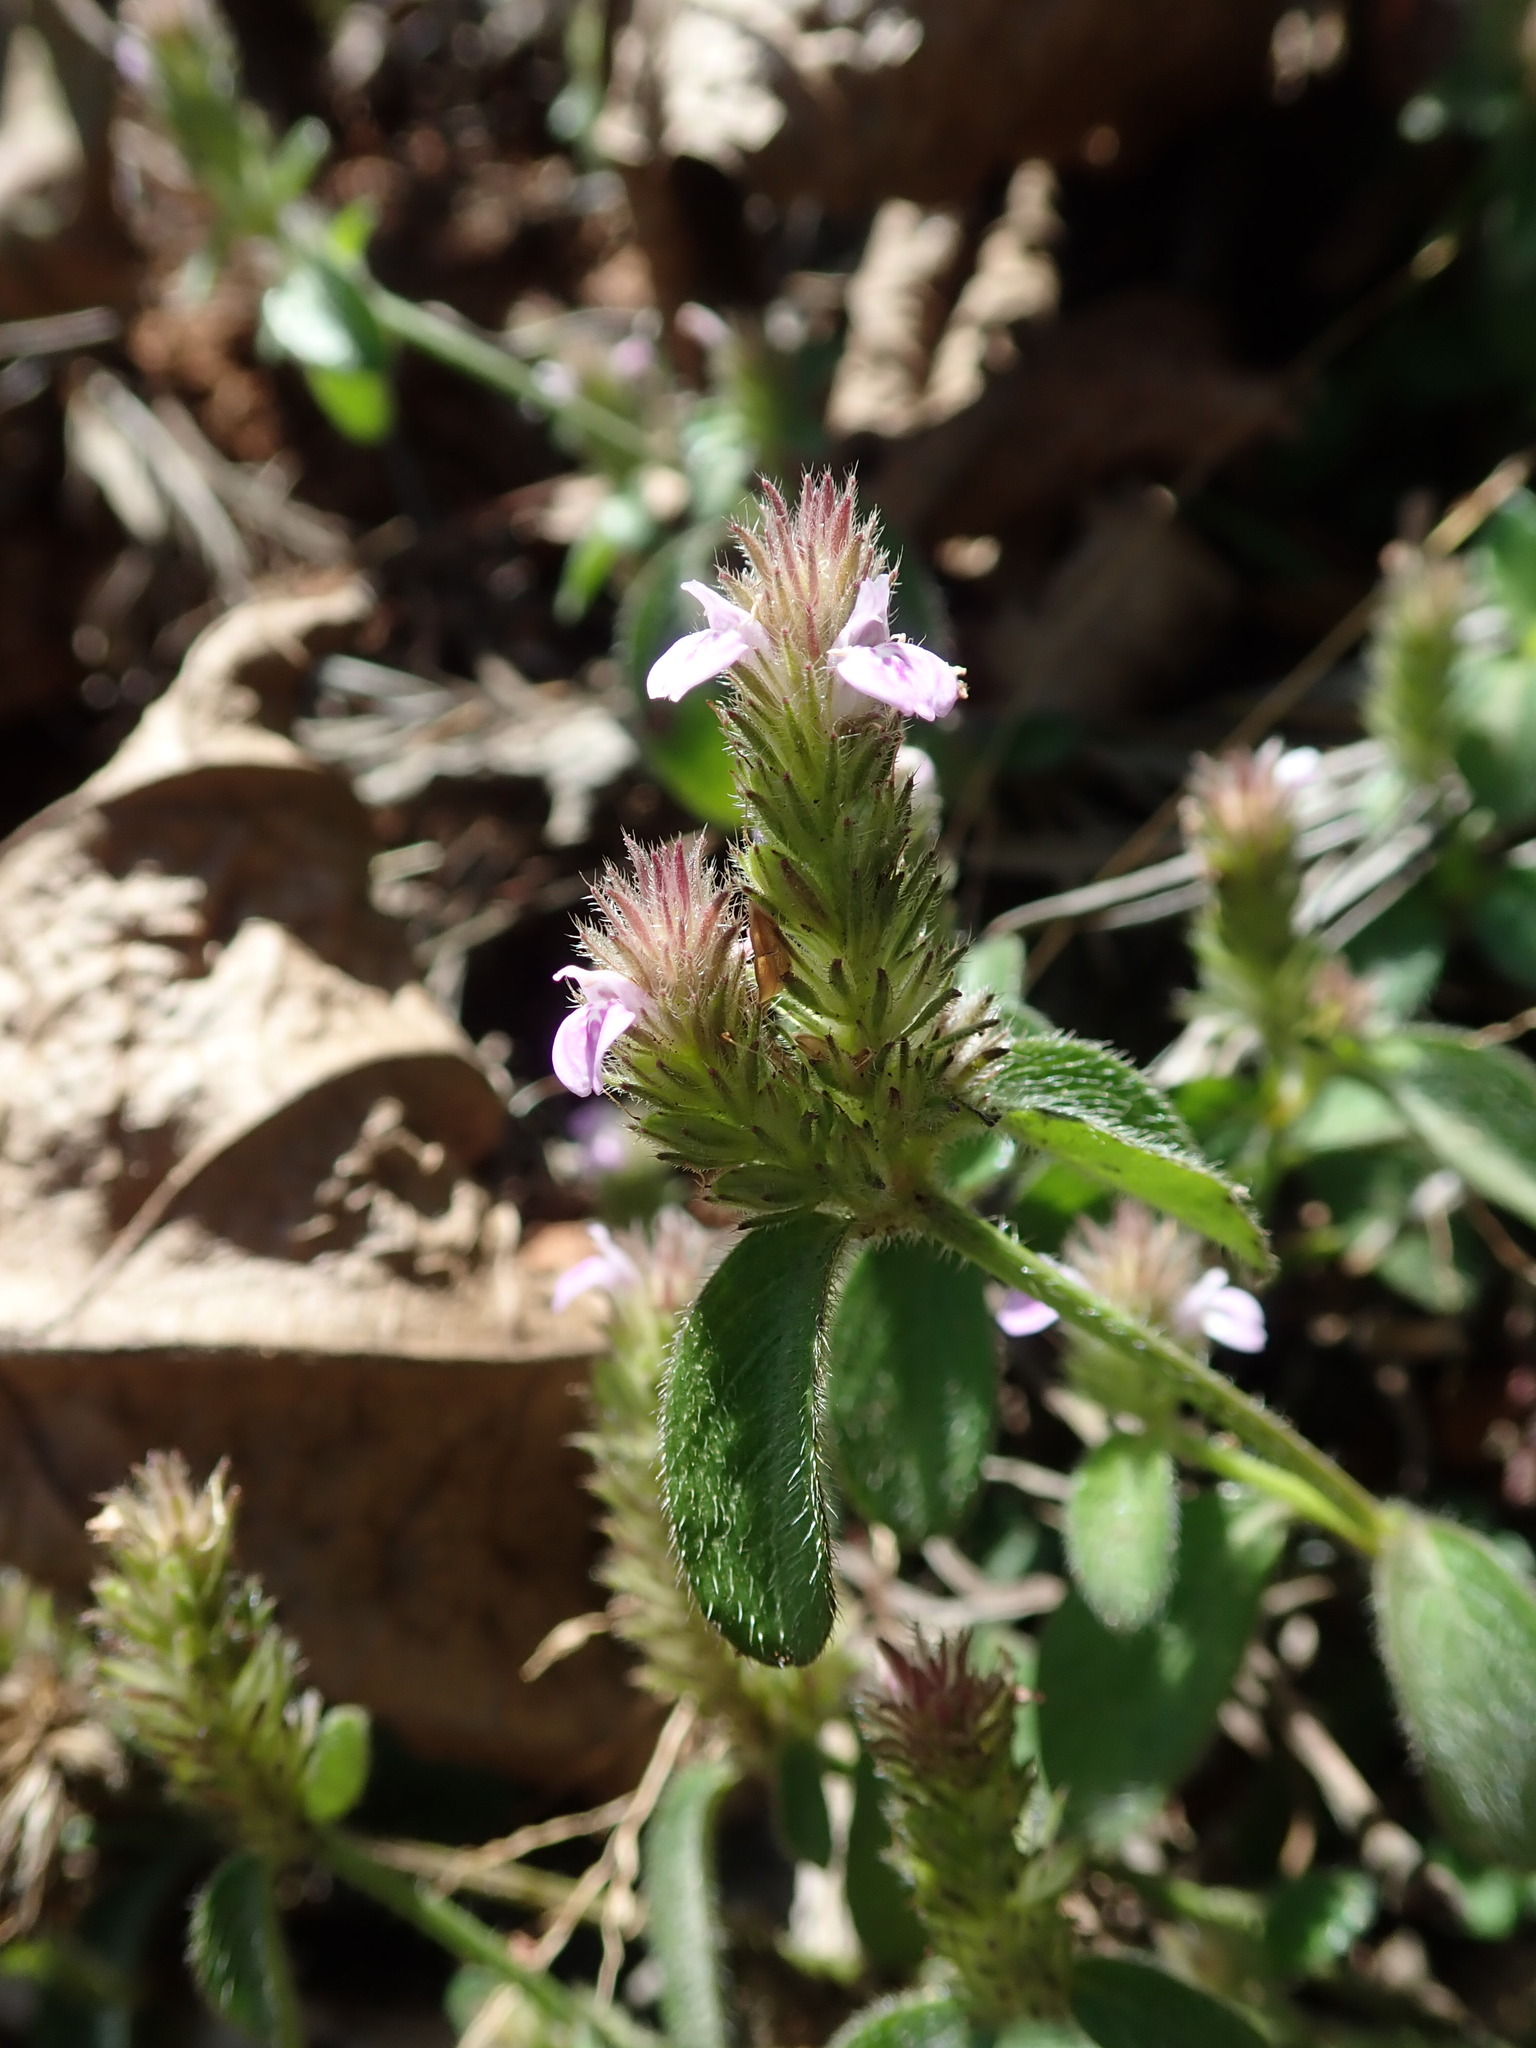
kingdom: Plantae
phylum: Tracheophyta
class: Magnoliopsida
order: Lamiales
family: Acanthaceae
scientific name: Acanthaceae
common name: Acanthaceae
